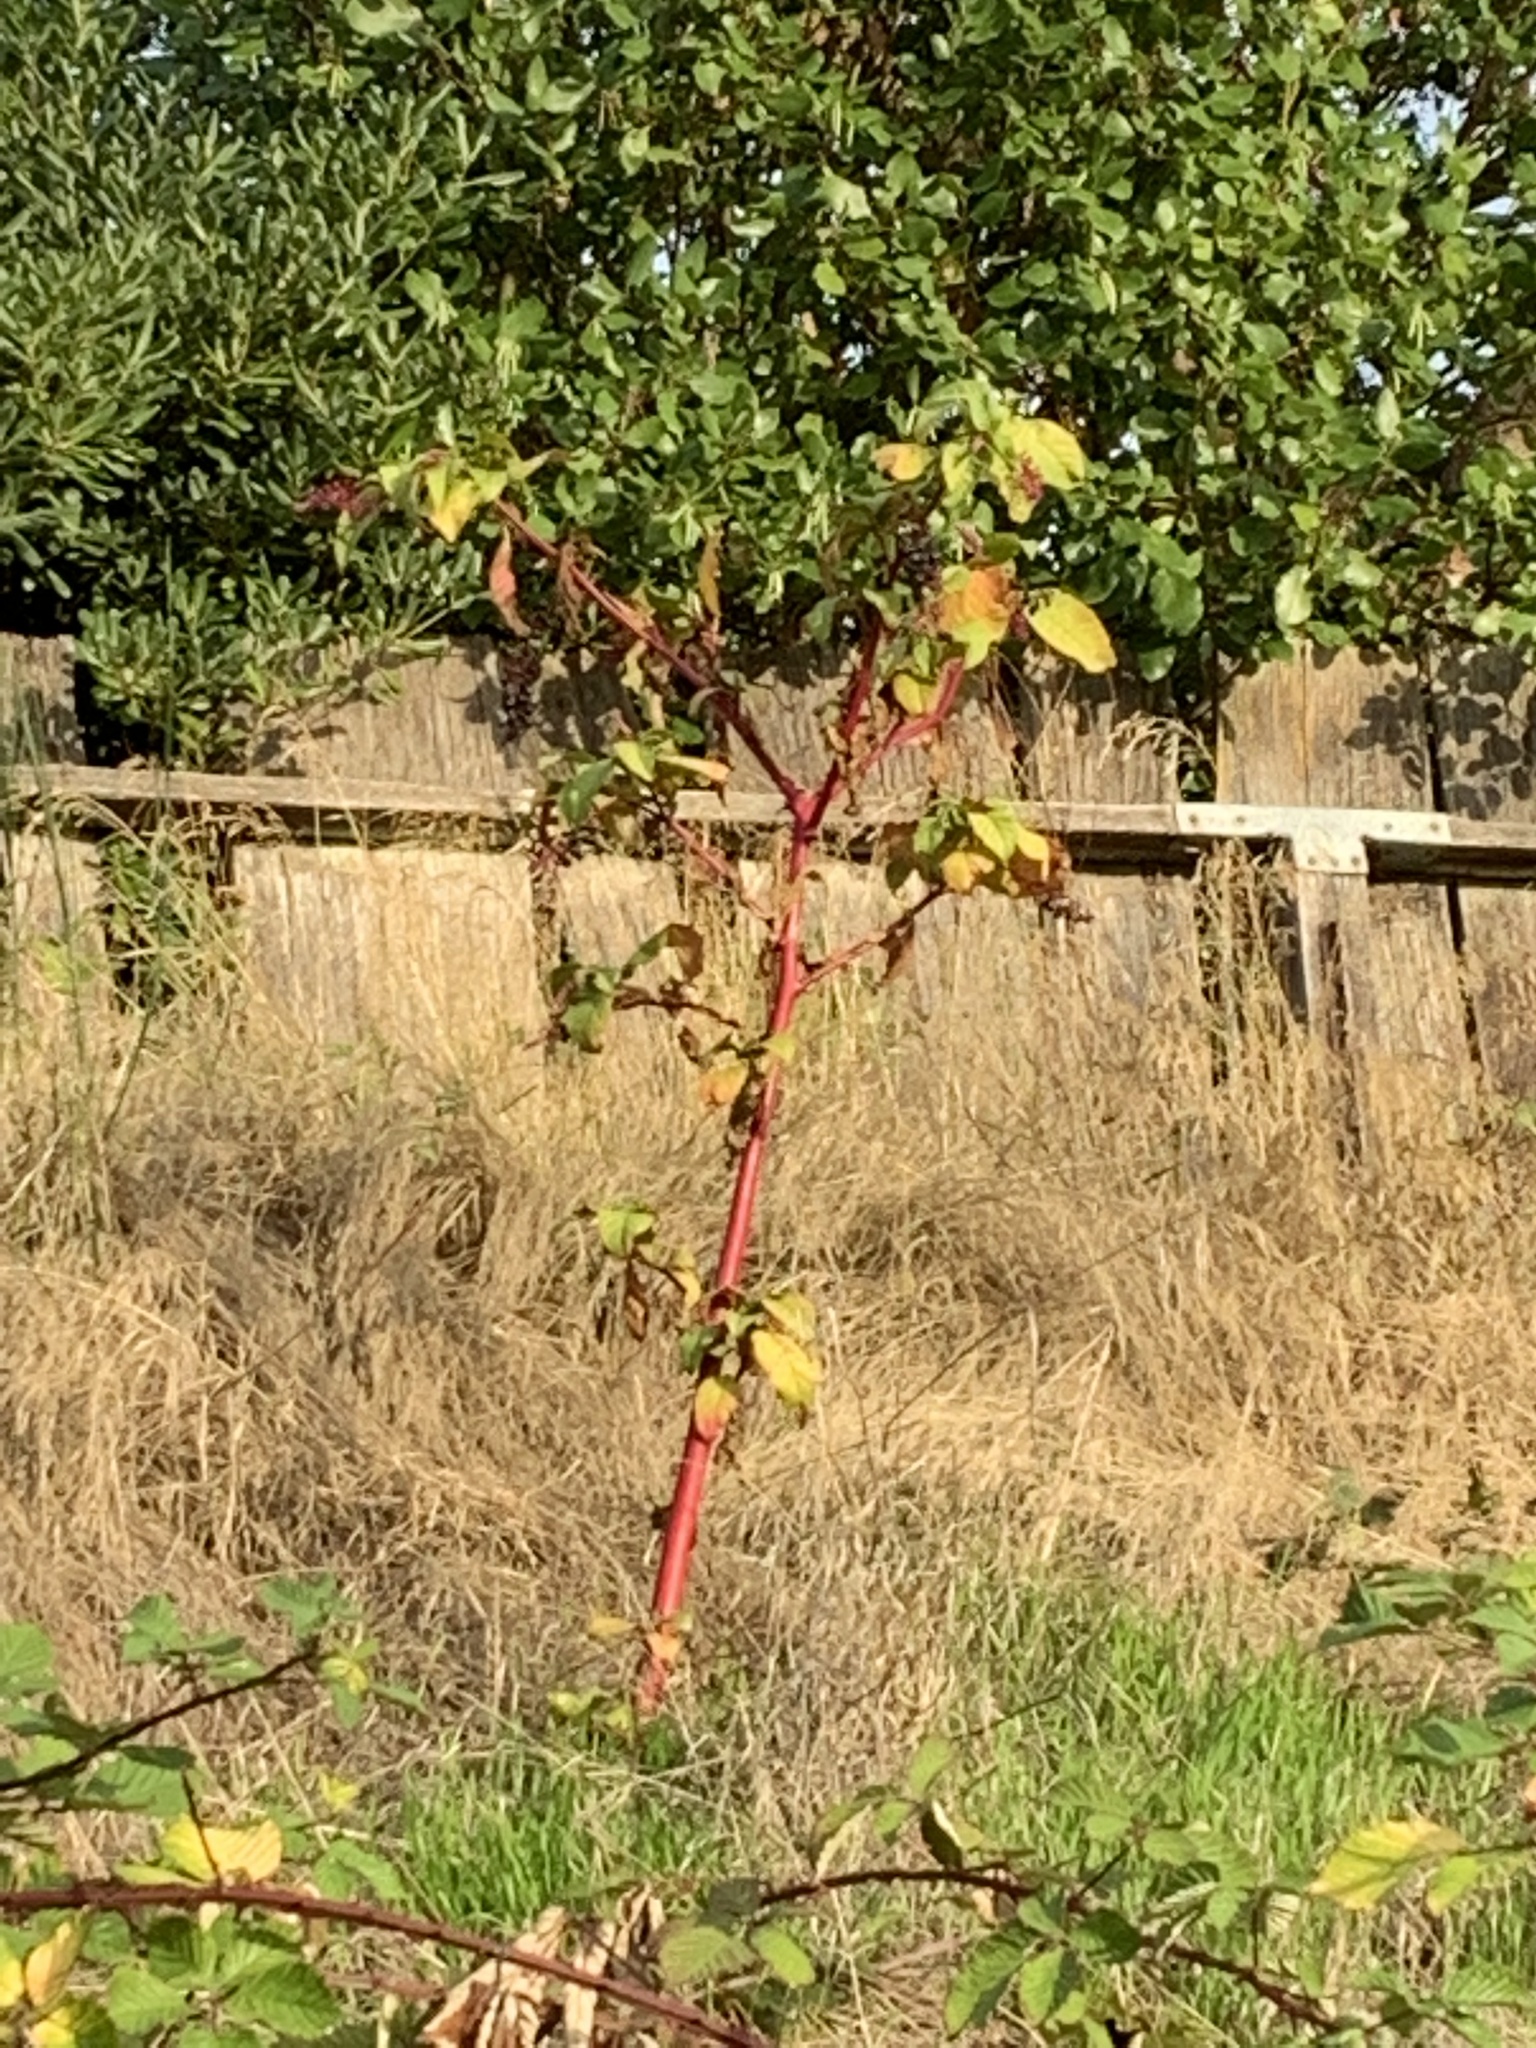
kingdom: Plantae
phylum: Tracheophyta
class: Magnoliopsida
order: Caryophyllales
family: Phytolaccaceae
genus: Phytolacca
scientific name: Phytolacca americana
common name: American pokeweed
